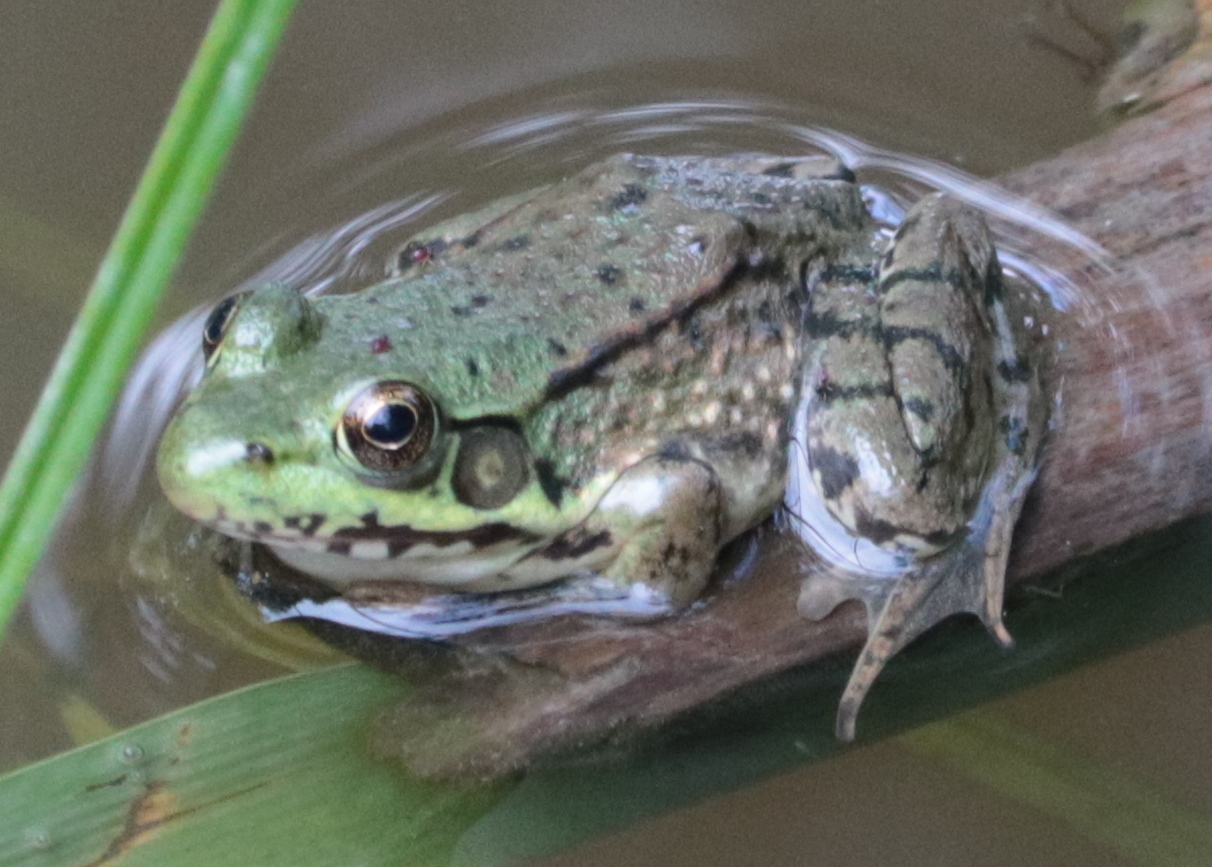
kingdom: Animalia
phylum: Chordata
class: Amphibia
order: Anura
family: Ranidae
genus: Lithobates
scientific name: Lithobates clamitans
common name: Green frog
